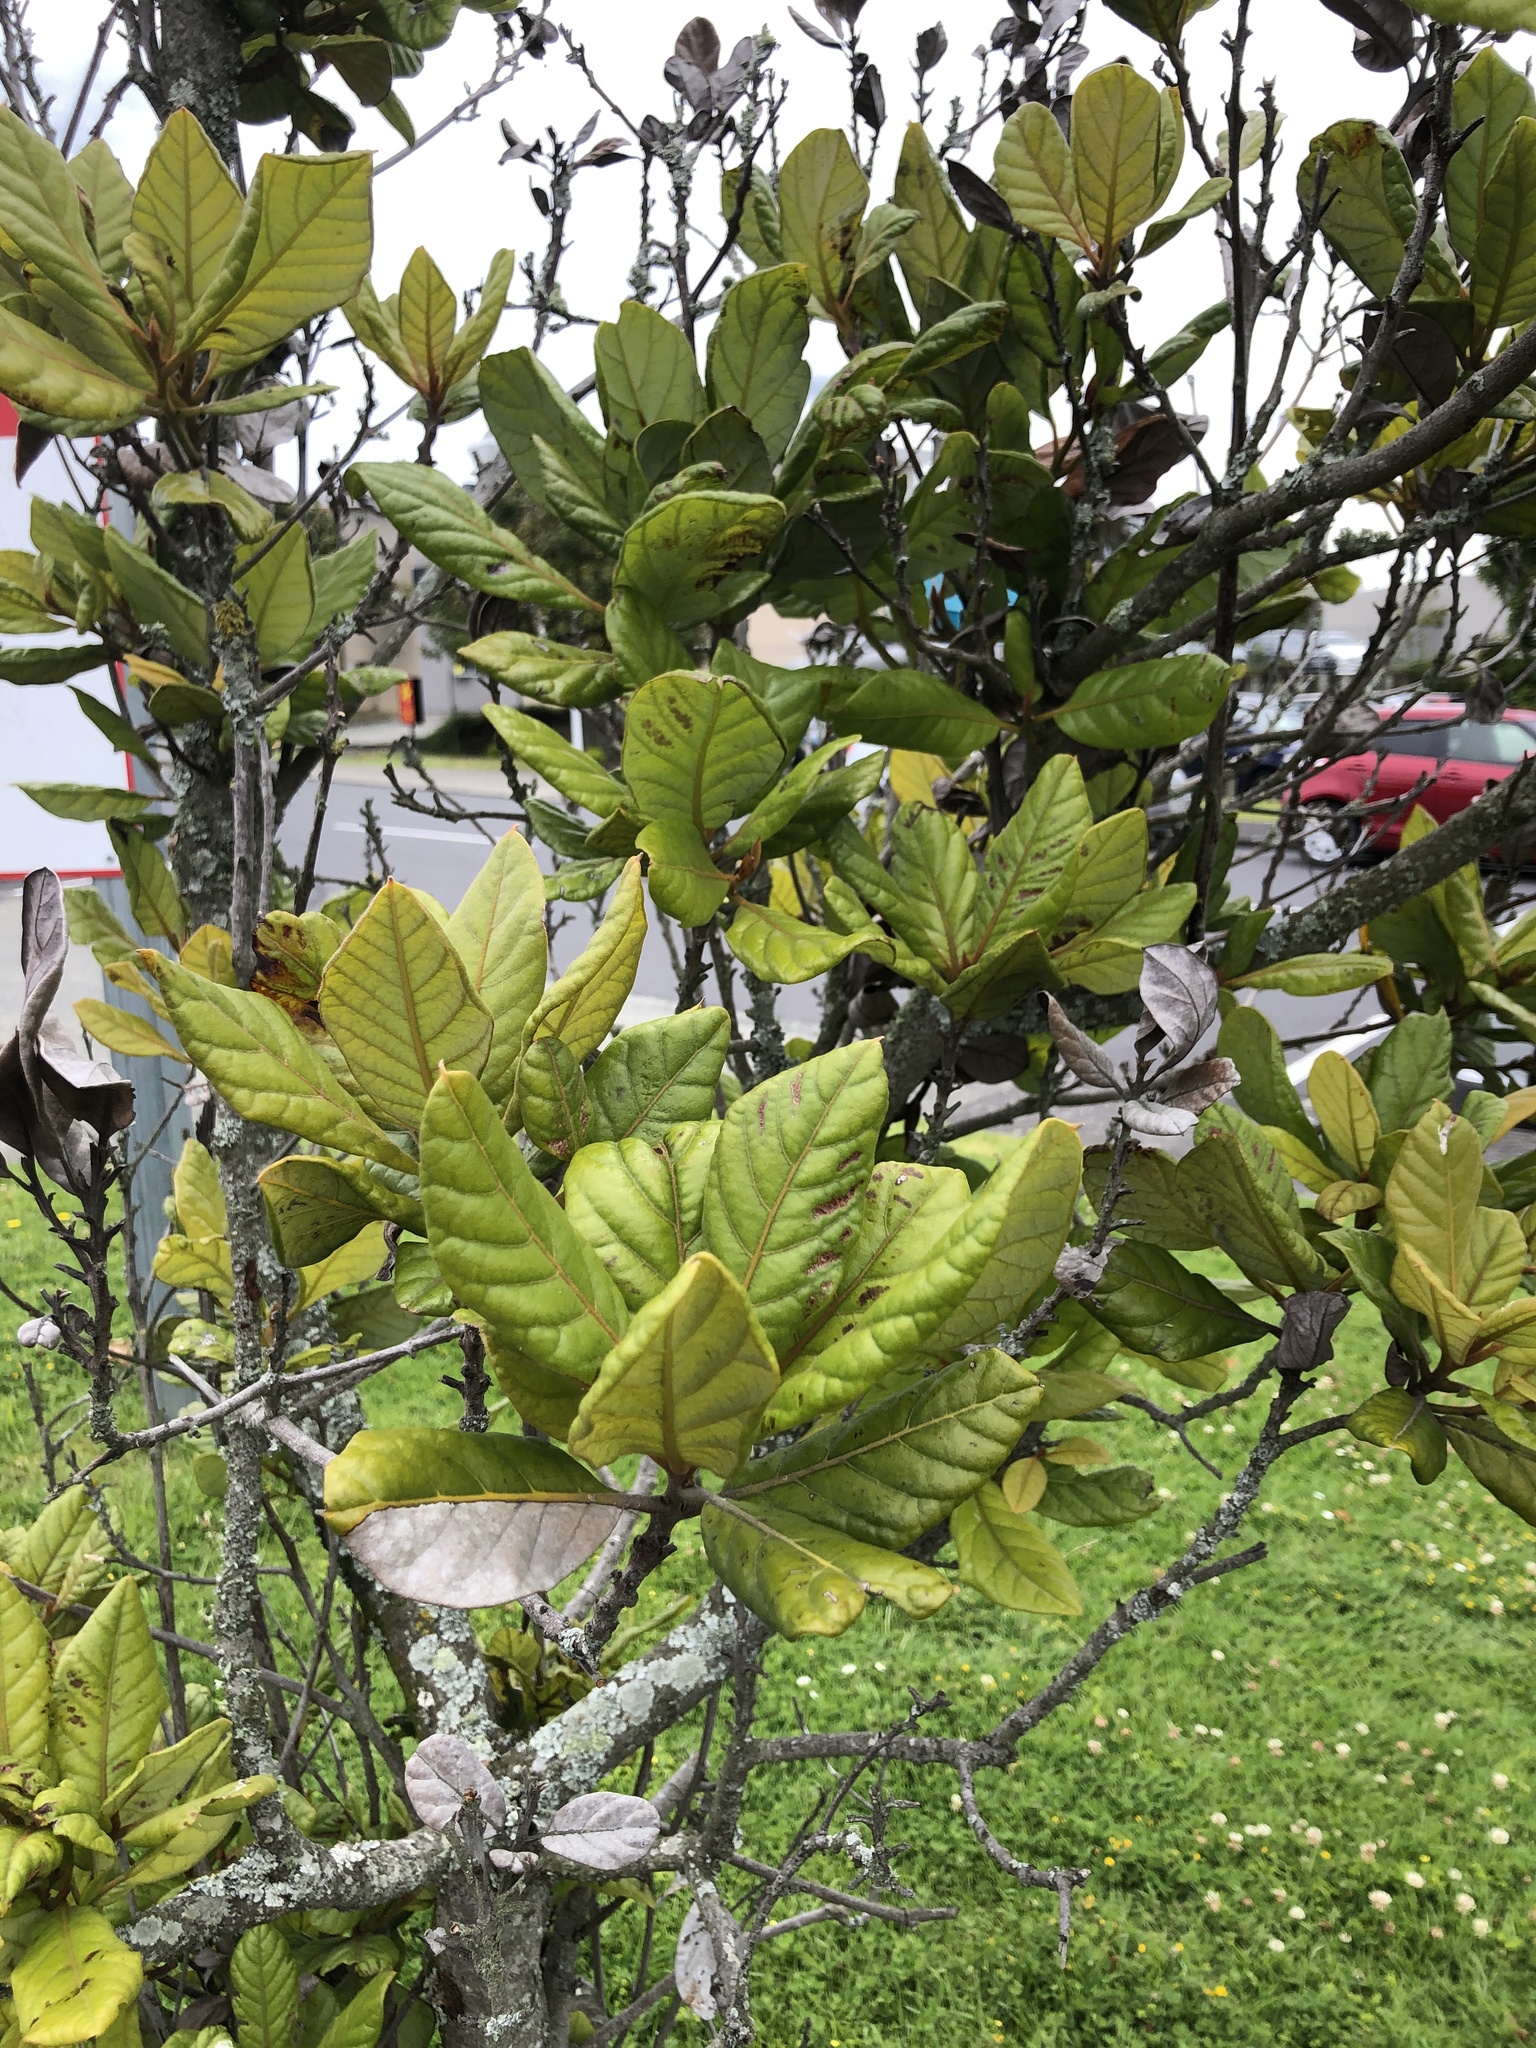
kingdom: Plantae
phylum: Tracheophyta
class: Magnoliopsida
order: Laurales
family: Lauraceae
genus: Beilschmiedia
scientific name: Beilschmiedia tarairi
